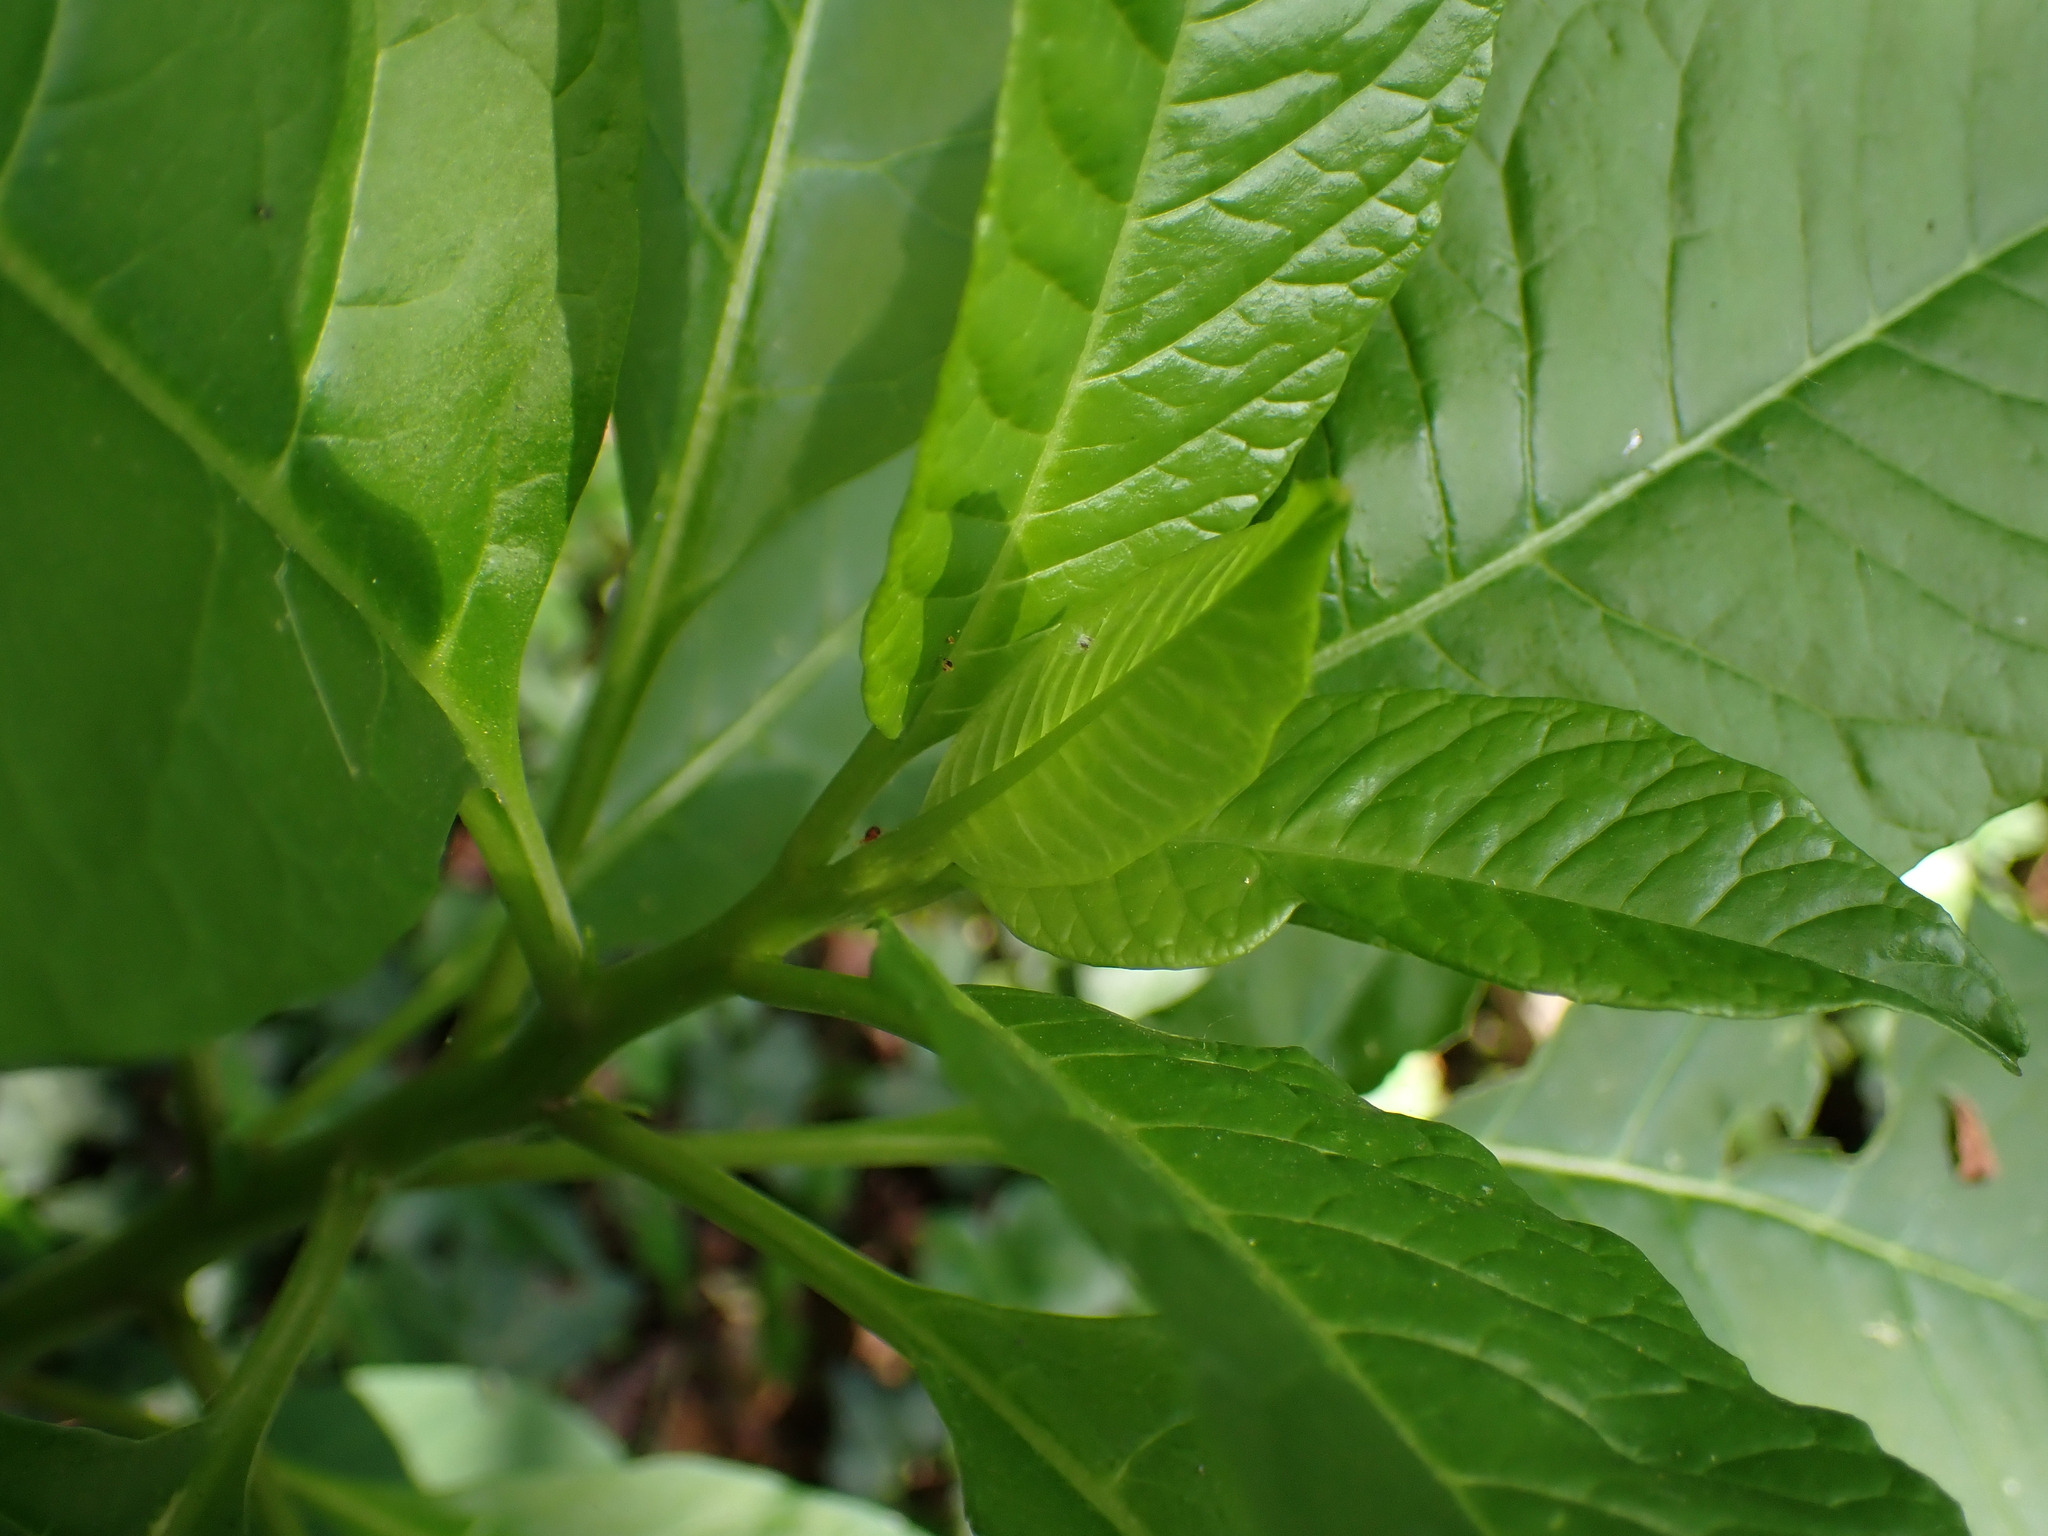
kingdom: Plantae
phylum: Tracheophyta
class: Magnoliopsida
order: Caryophyllales
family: Phytolaccaceae
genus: Phytolacca
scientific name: Phytolacca americana
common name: American pokeweed
